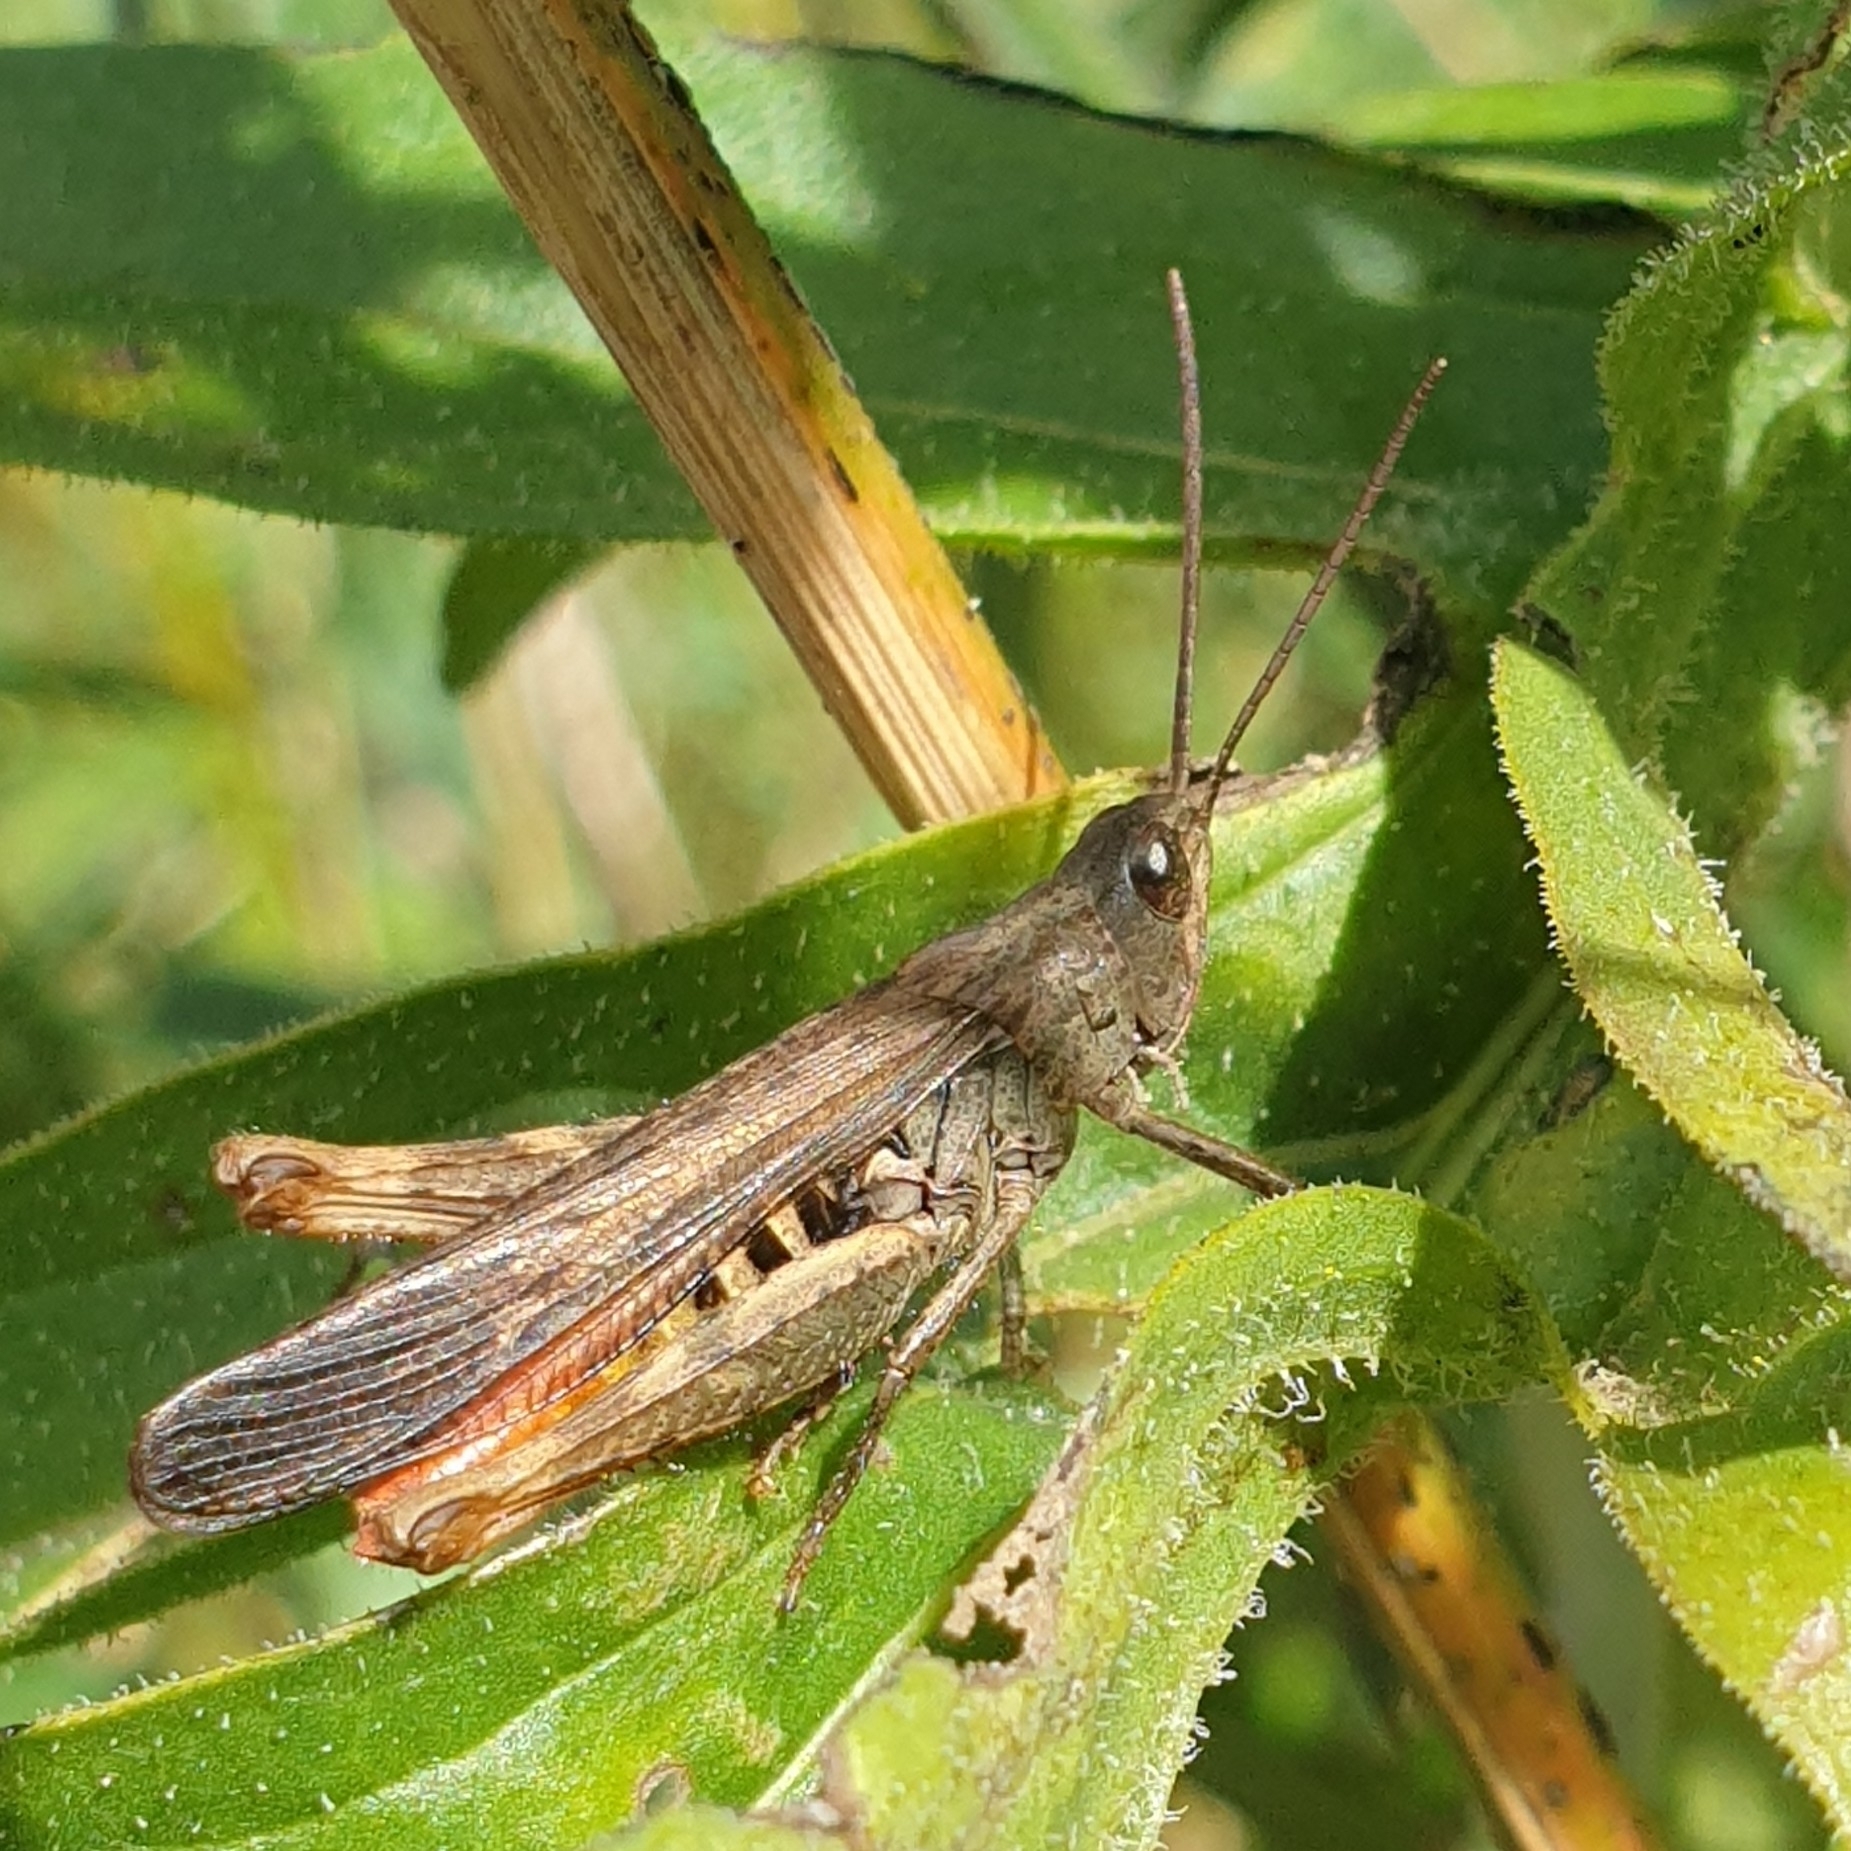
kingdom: Animalia
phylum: Arthropoda
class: Insecta
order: Orthoptera
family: Acrididae
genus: Chorthippus
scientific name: Chorthippus brunneus
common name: Field grasshopper
